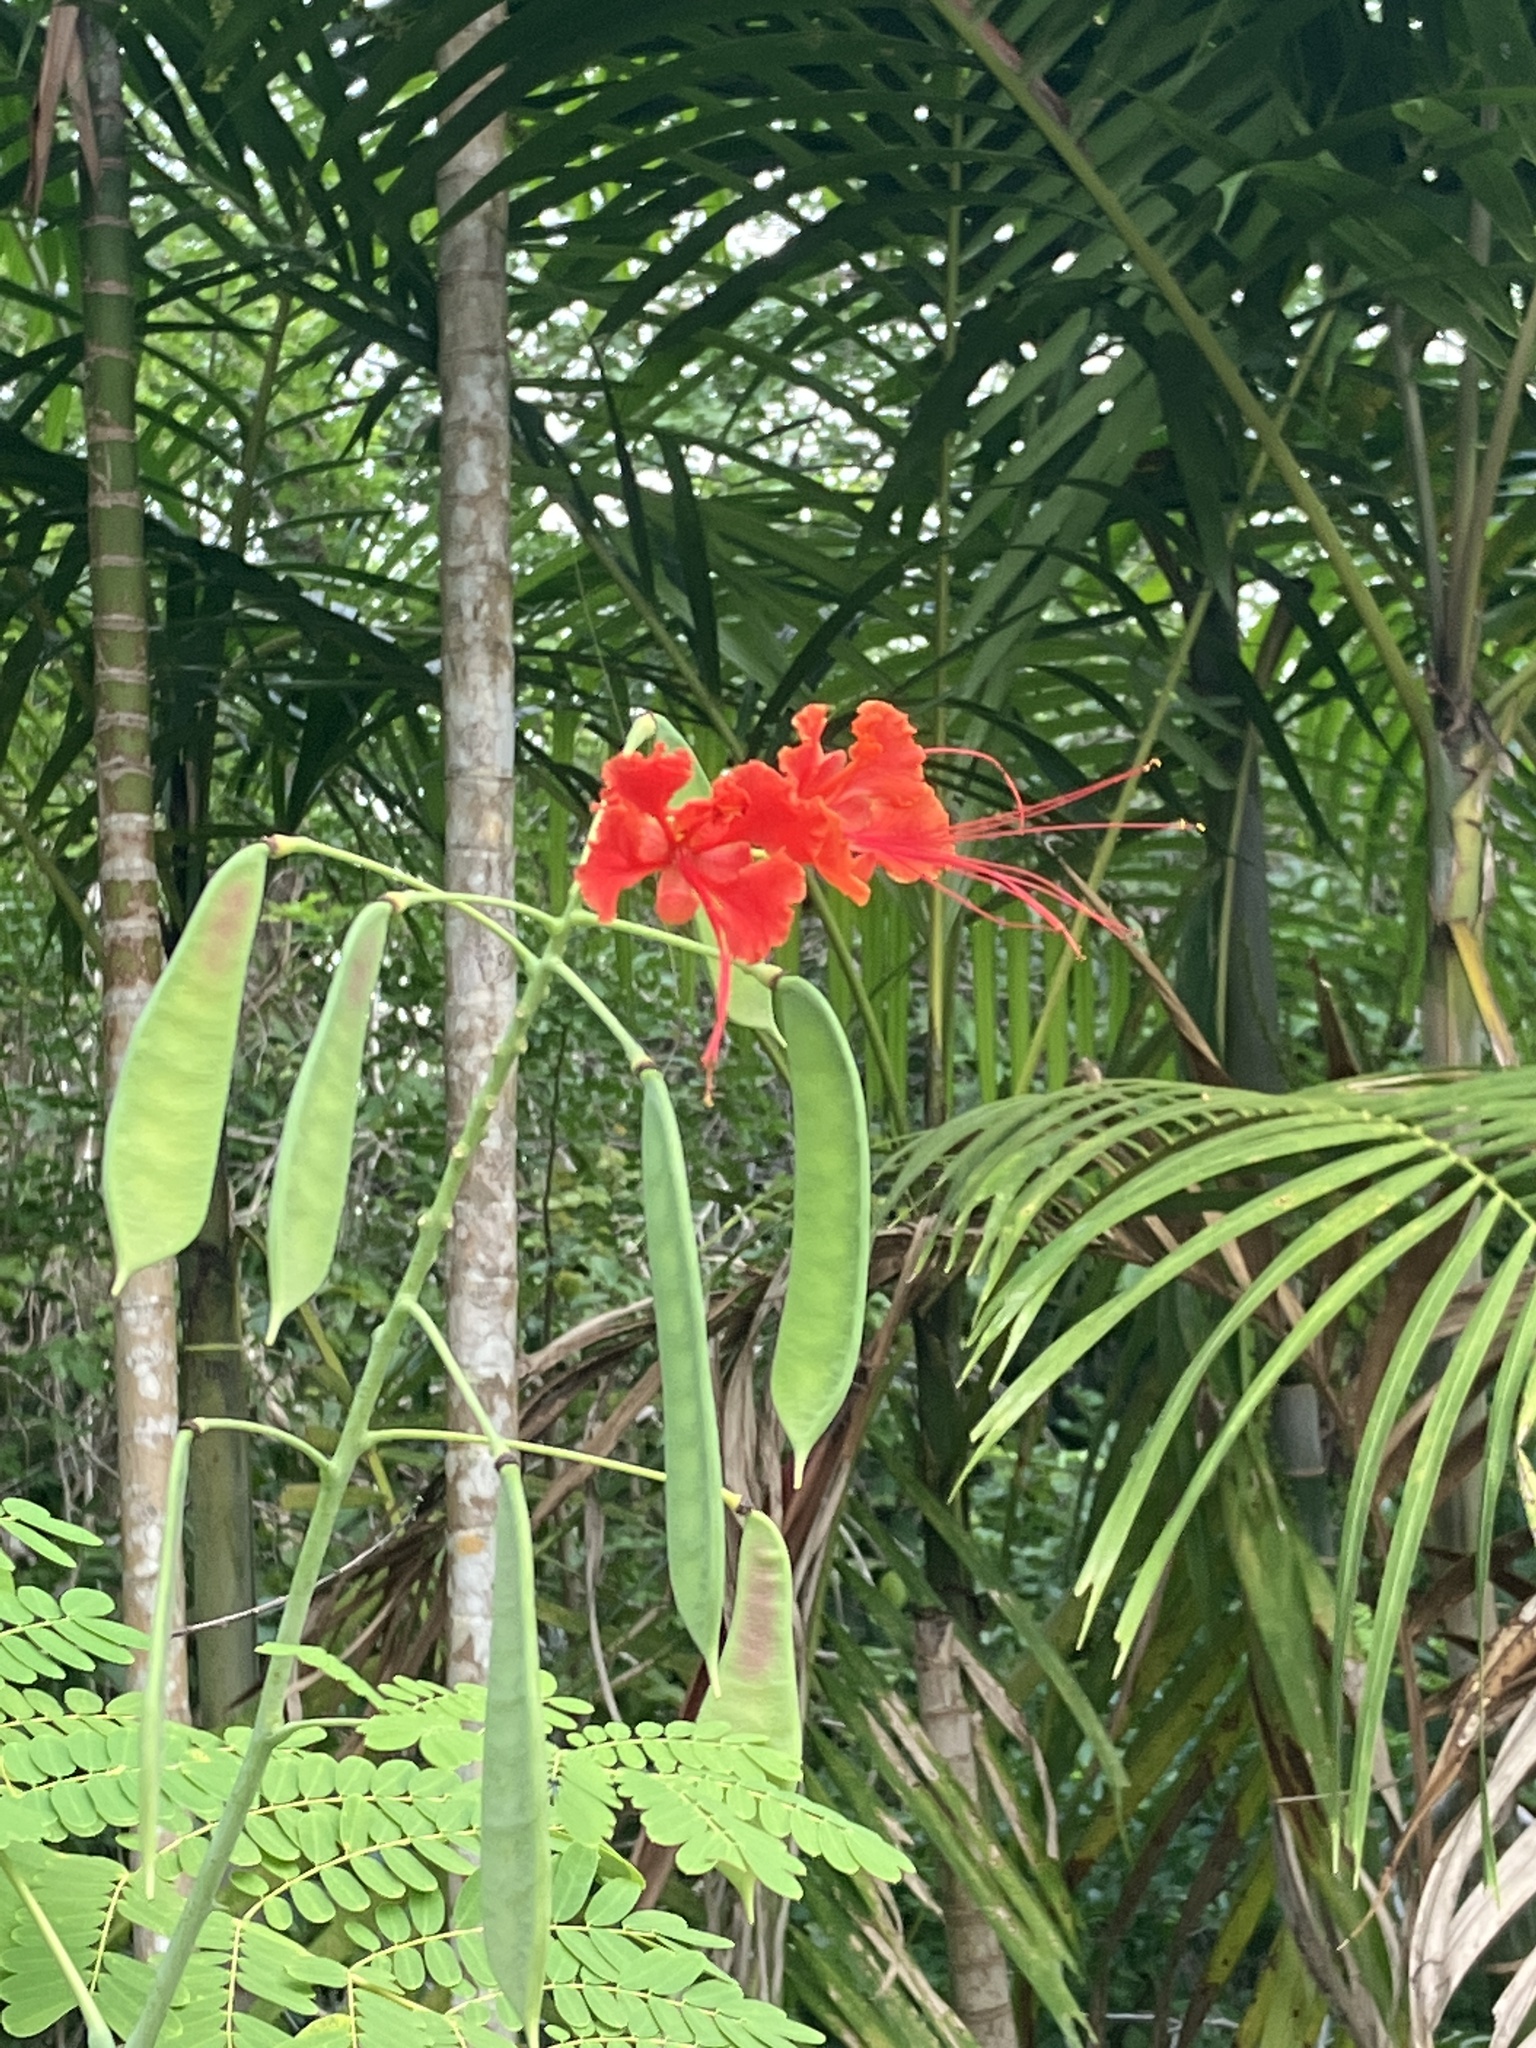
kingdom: Plantae
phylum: Tracheophyta
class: Magnoliopsida
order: Fabales
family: Fabaceae
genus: Caesalpinia
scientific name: Caesalpinia pulcherrima
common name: Pride-of-barbados
